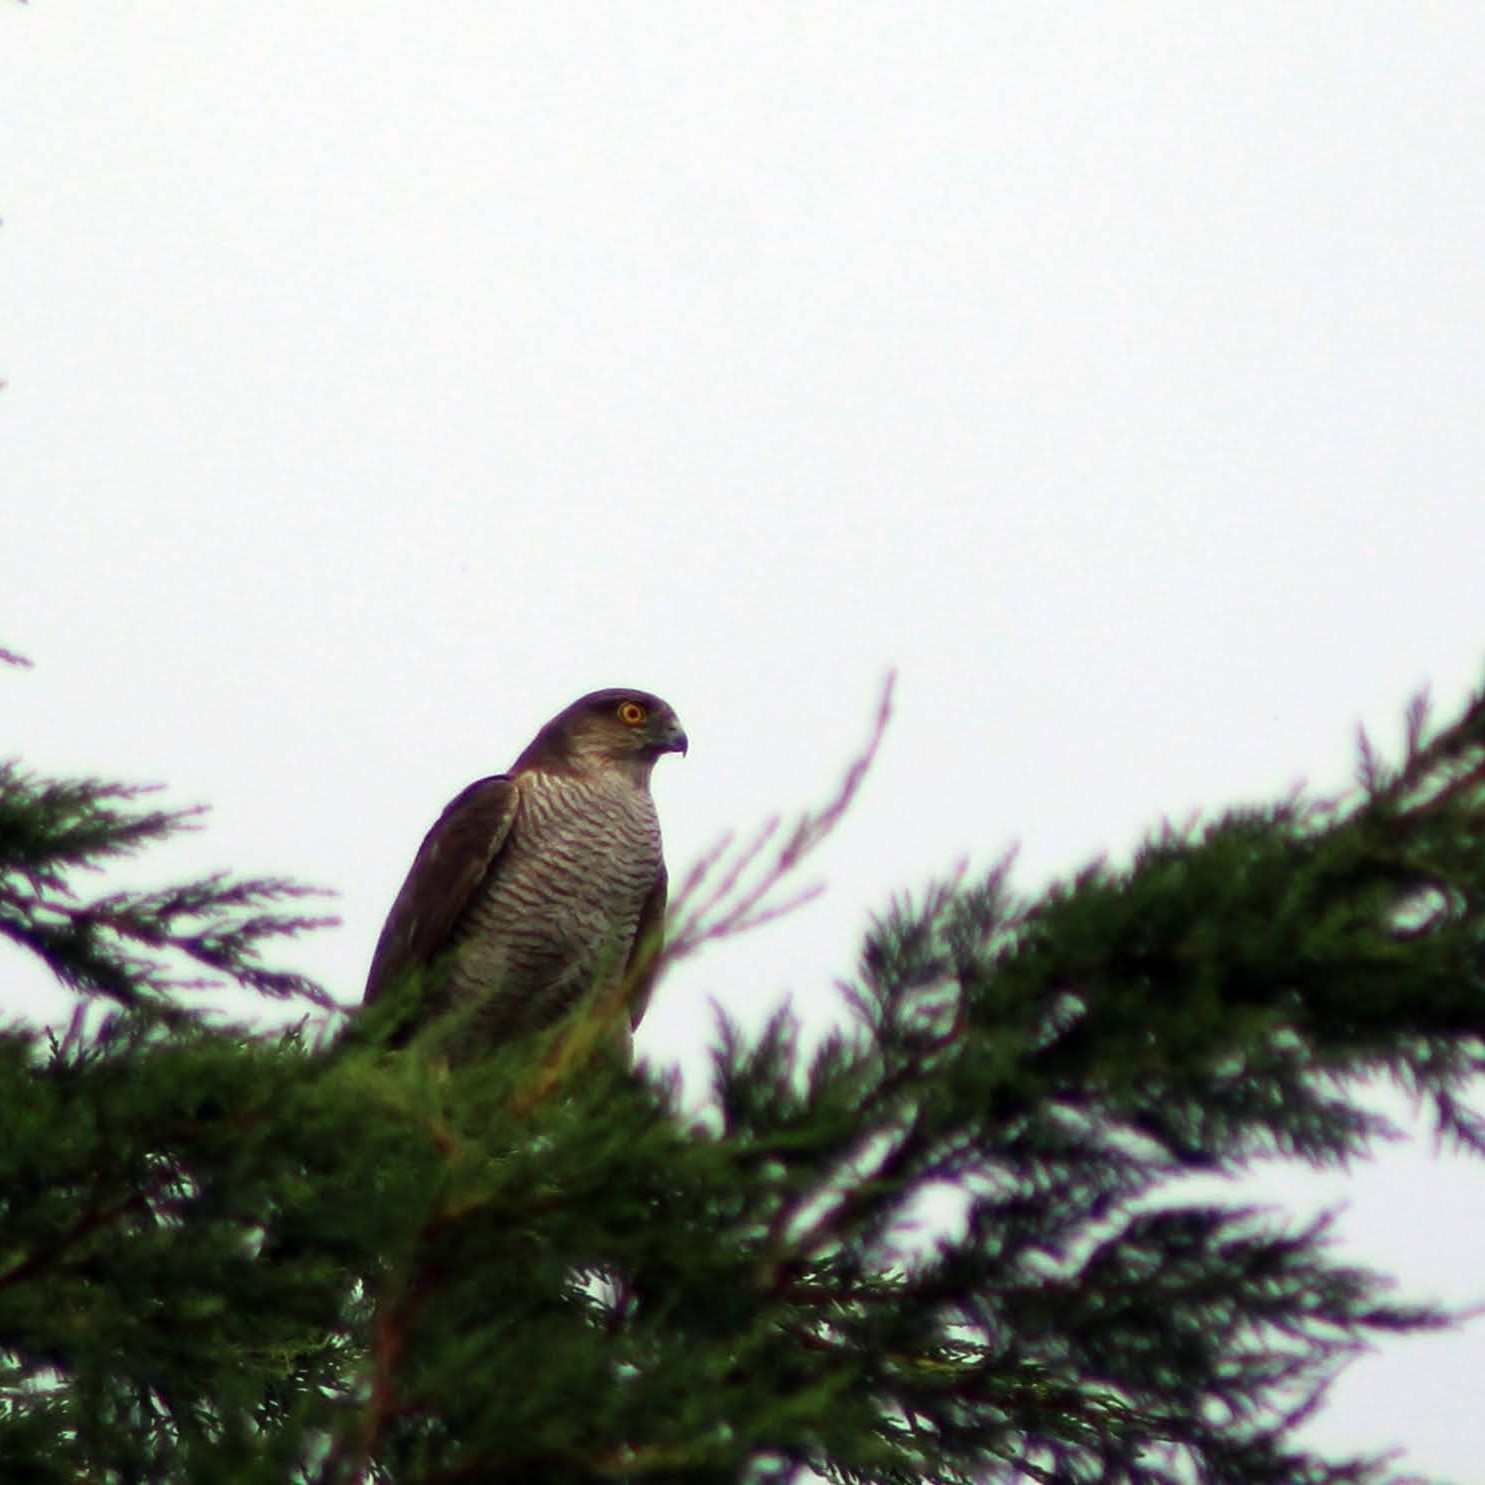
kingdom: Animalia
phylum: Chordata
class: Aves
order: Accipitriformes
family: Accipitridae
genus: Accipiter
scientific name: Accipiter nisus
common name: Eurasian sparrowhawk
